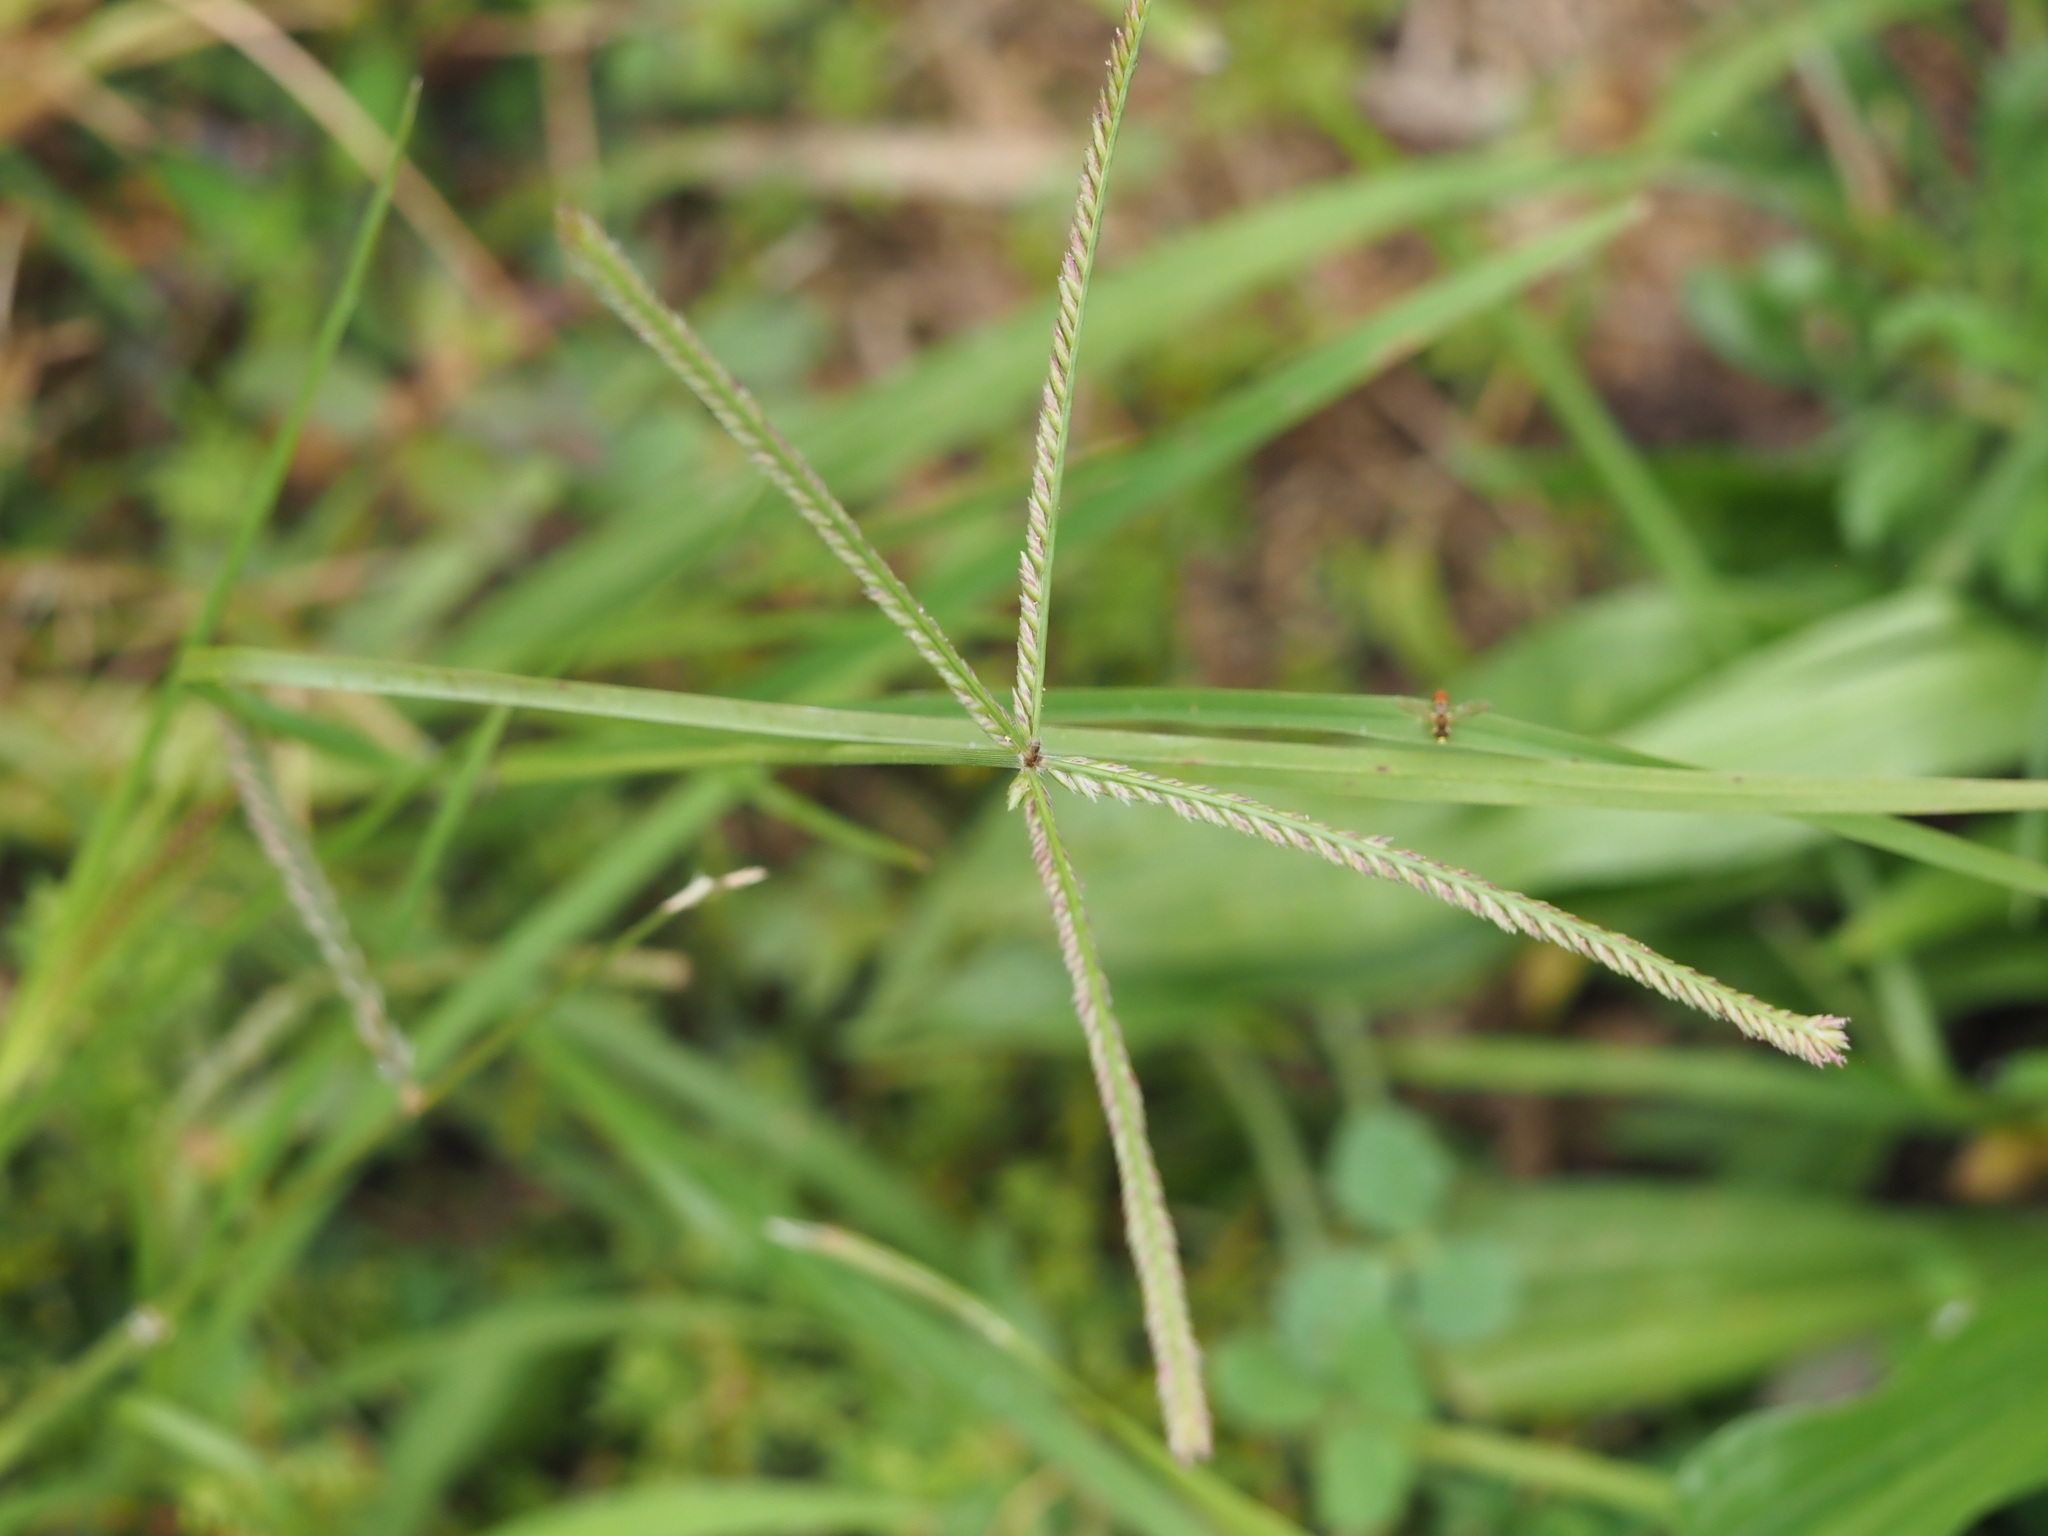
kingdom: Plantae
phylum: Tracheophyta
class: Liliopsida
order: Poales
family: Poaceae
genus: Eleusine
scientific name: Eleusine indica
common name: Yard-grass
